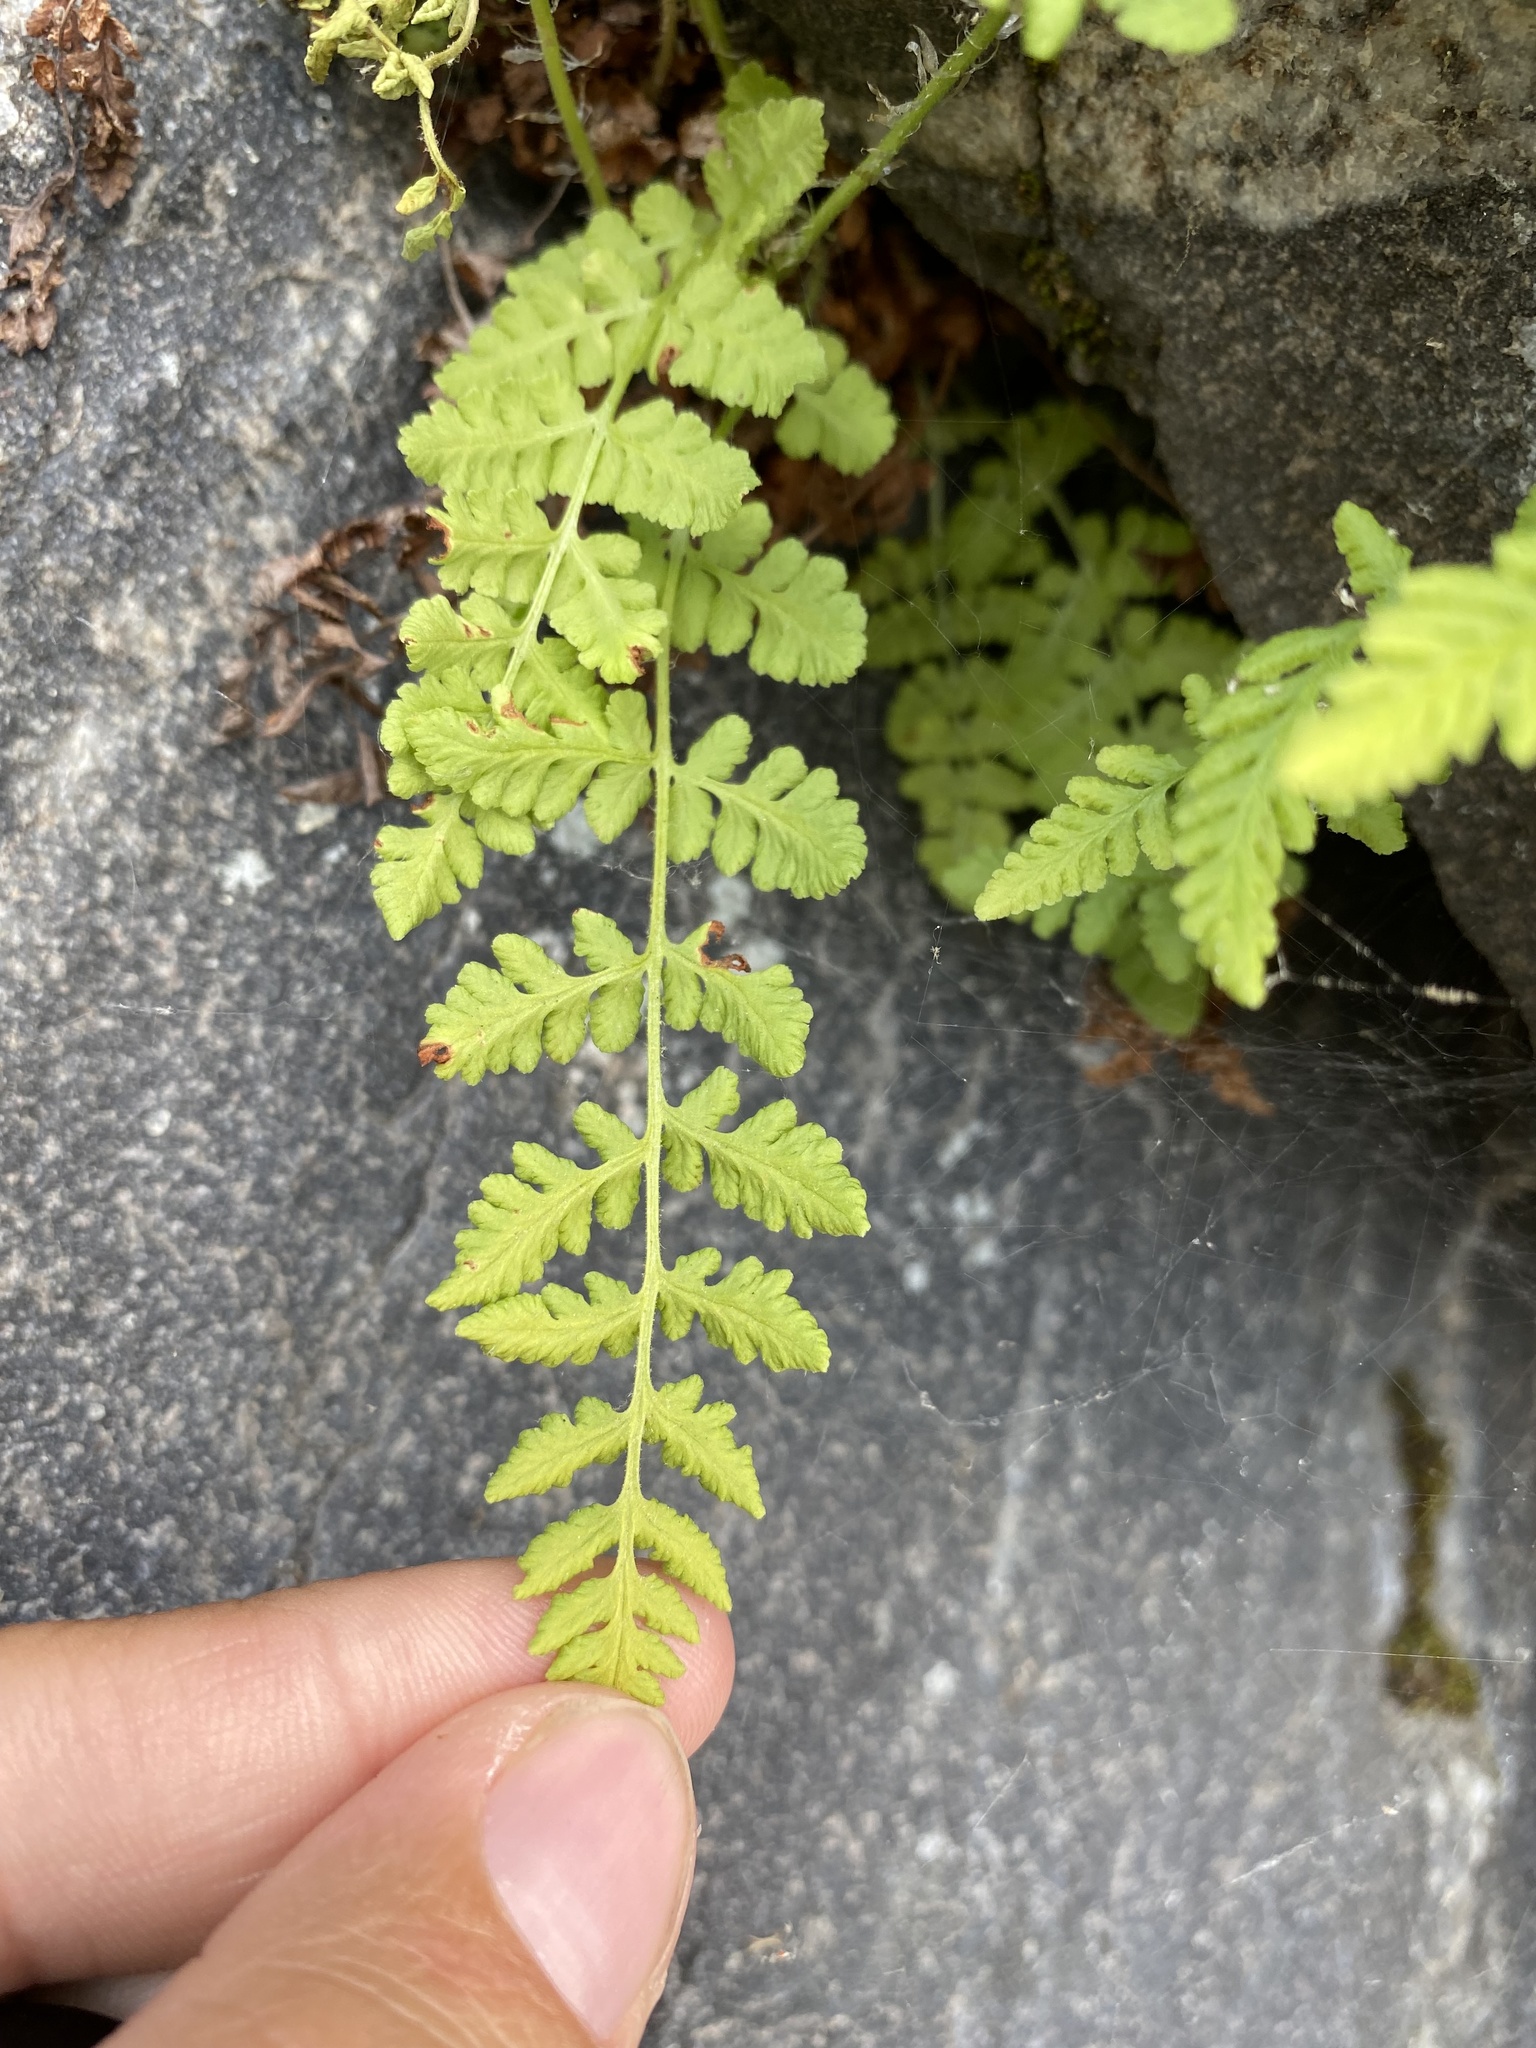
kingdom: Plantae
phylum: Tracheophyta
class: Polypodiopsida
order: Polypodiales
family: Woodsiaceae
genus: Physematium
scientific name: Physematium obtusum
